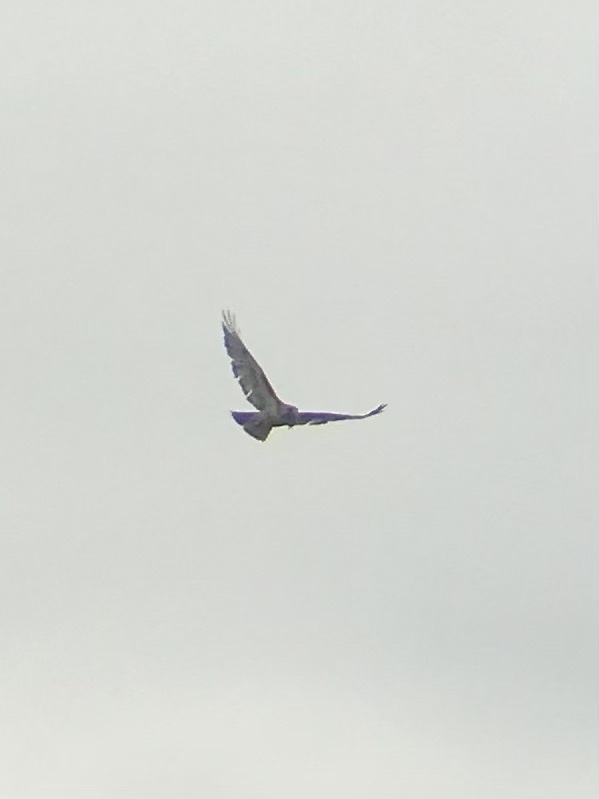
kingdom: Animalia
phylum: Chordata
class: Aves
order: Accipitriformes
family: Accipitridae
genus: Buteo
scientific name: Buteo jamaicensis
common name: Red-tailed hawk
